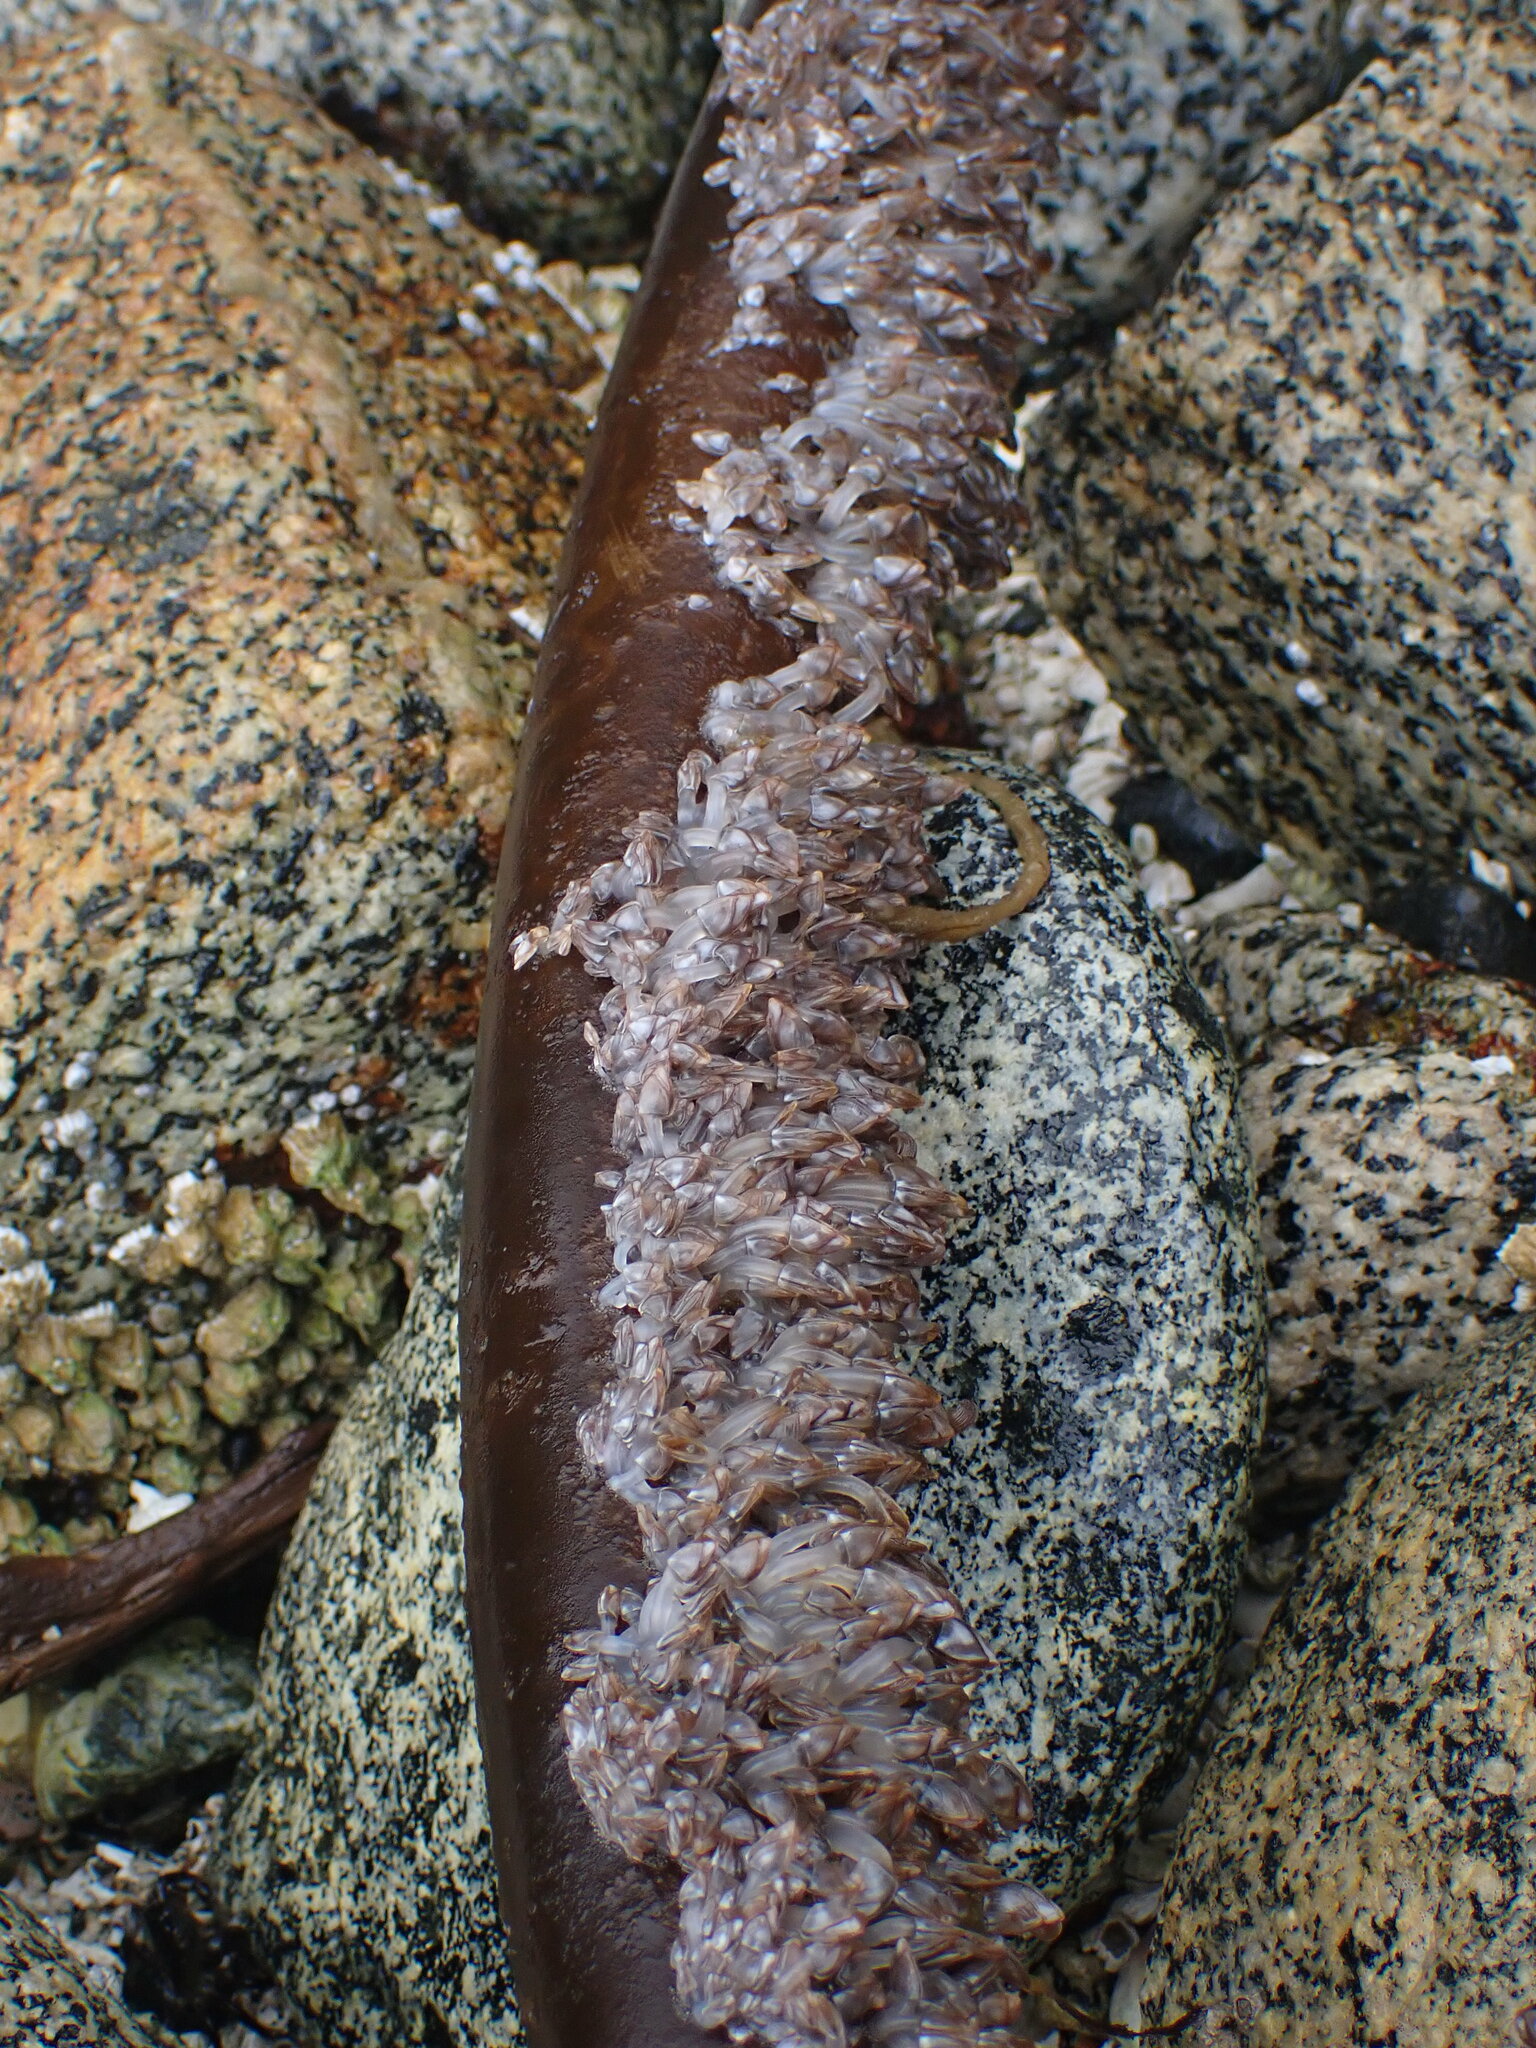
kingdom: Animalia
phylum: Arthropoda
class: Maxillopoda
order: Pedunculata
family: Lepadidae
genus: Lepas
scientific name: Lepas pacifica
